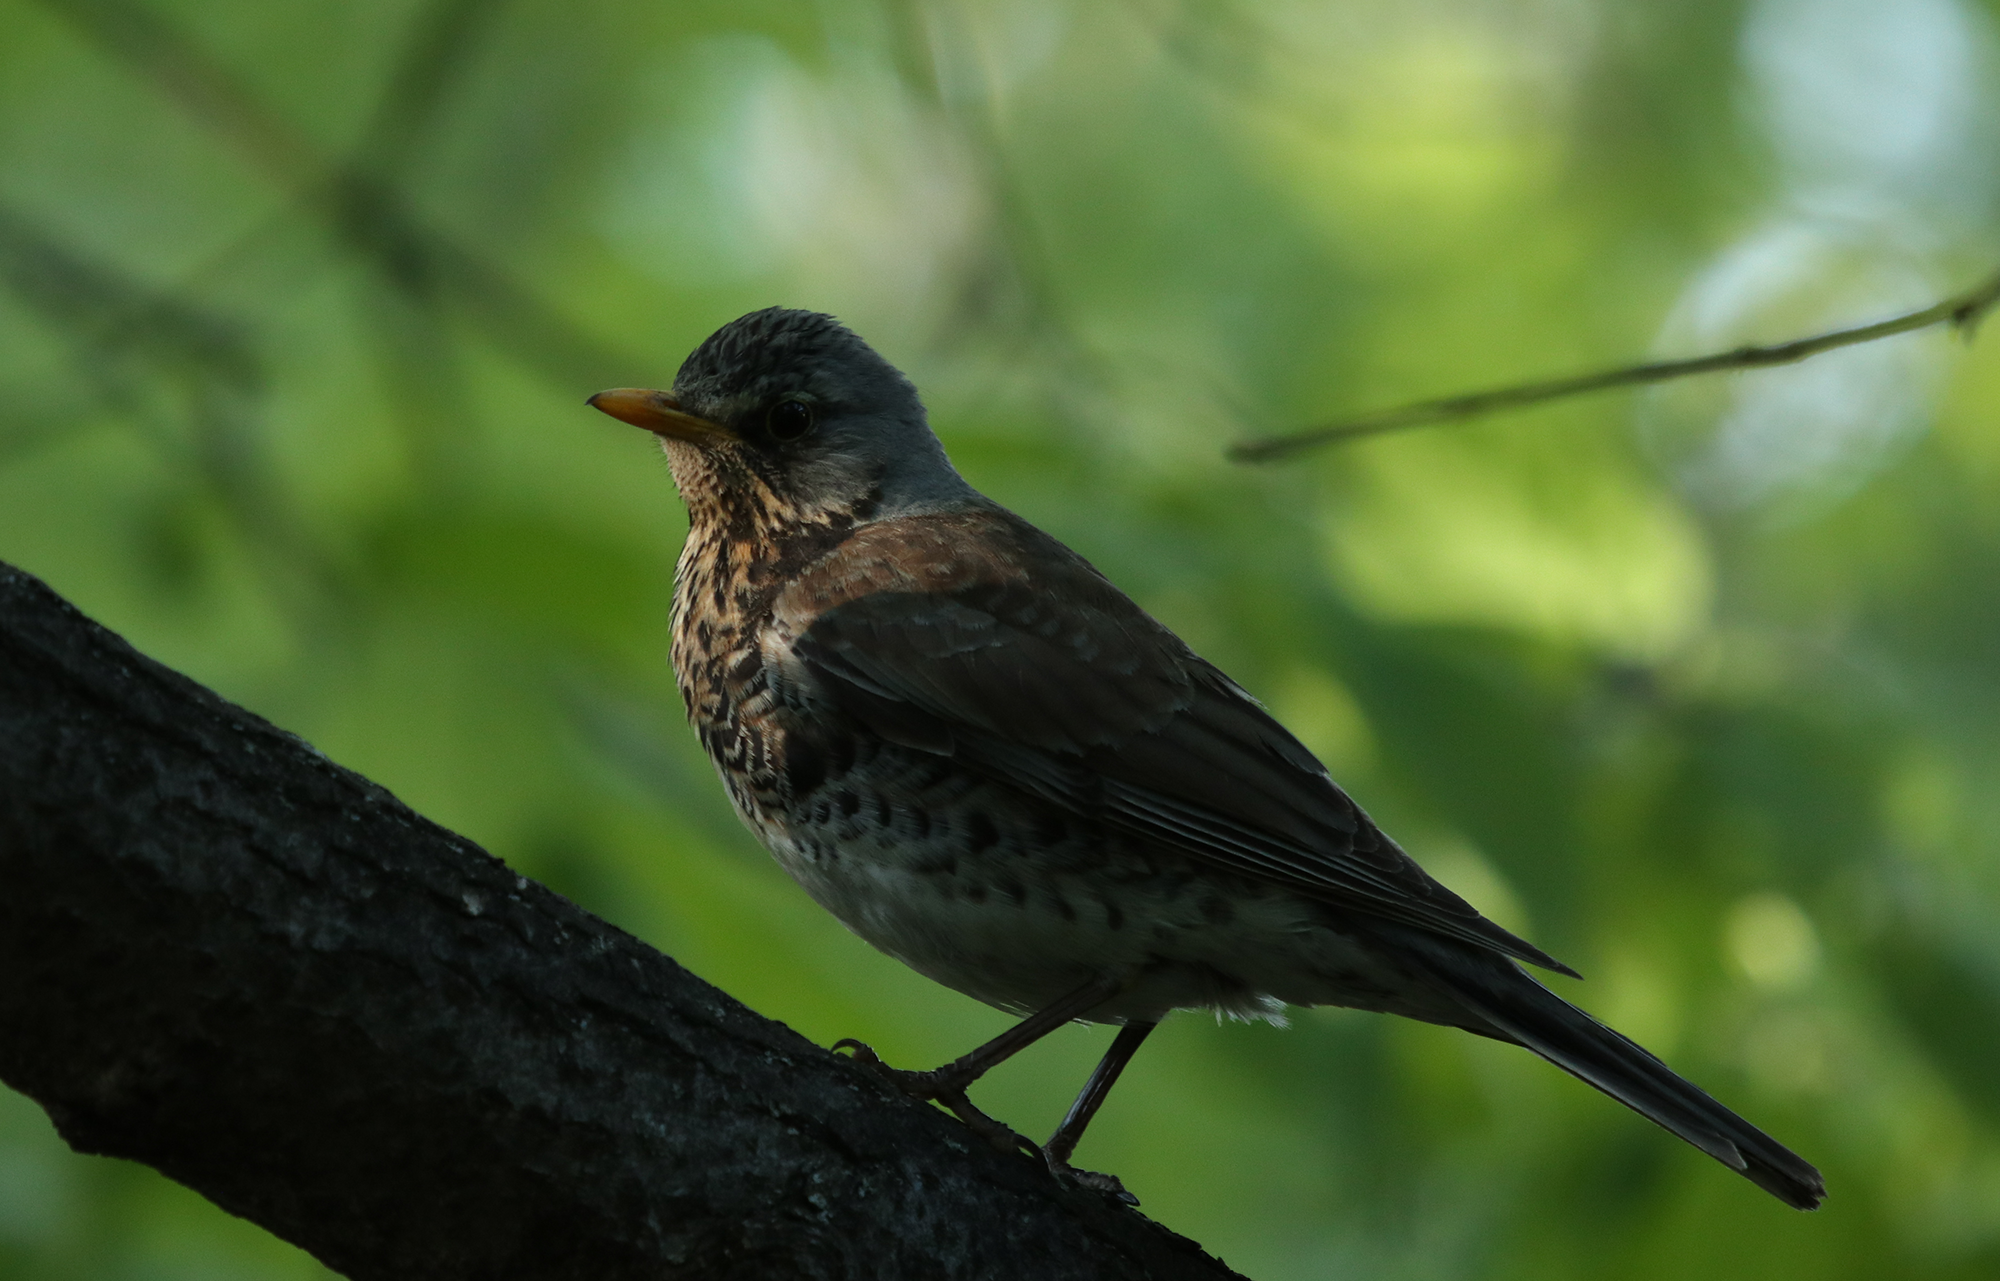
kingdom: Animalia
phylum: Chordata
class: Aves
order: Passeriformes
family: Turdidae
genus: Turdus
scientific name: Turdus pilaris
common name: Fieldfare
